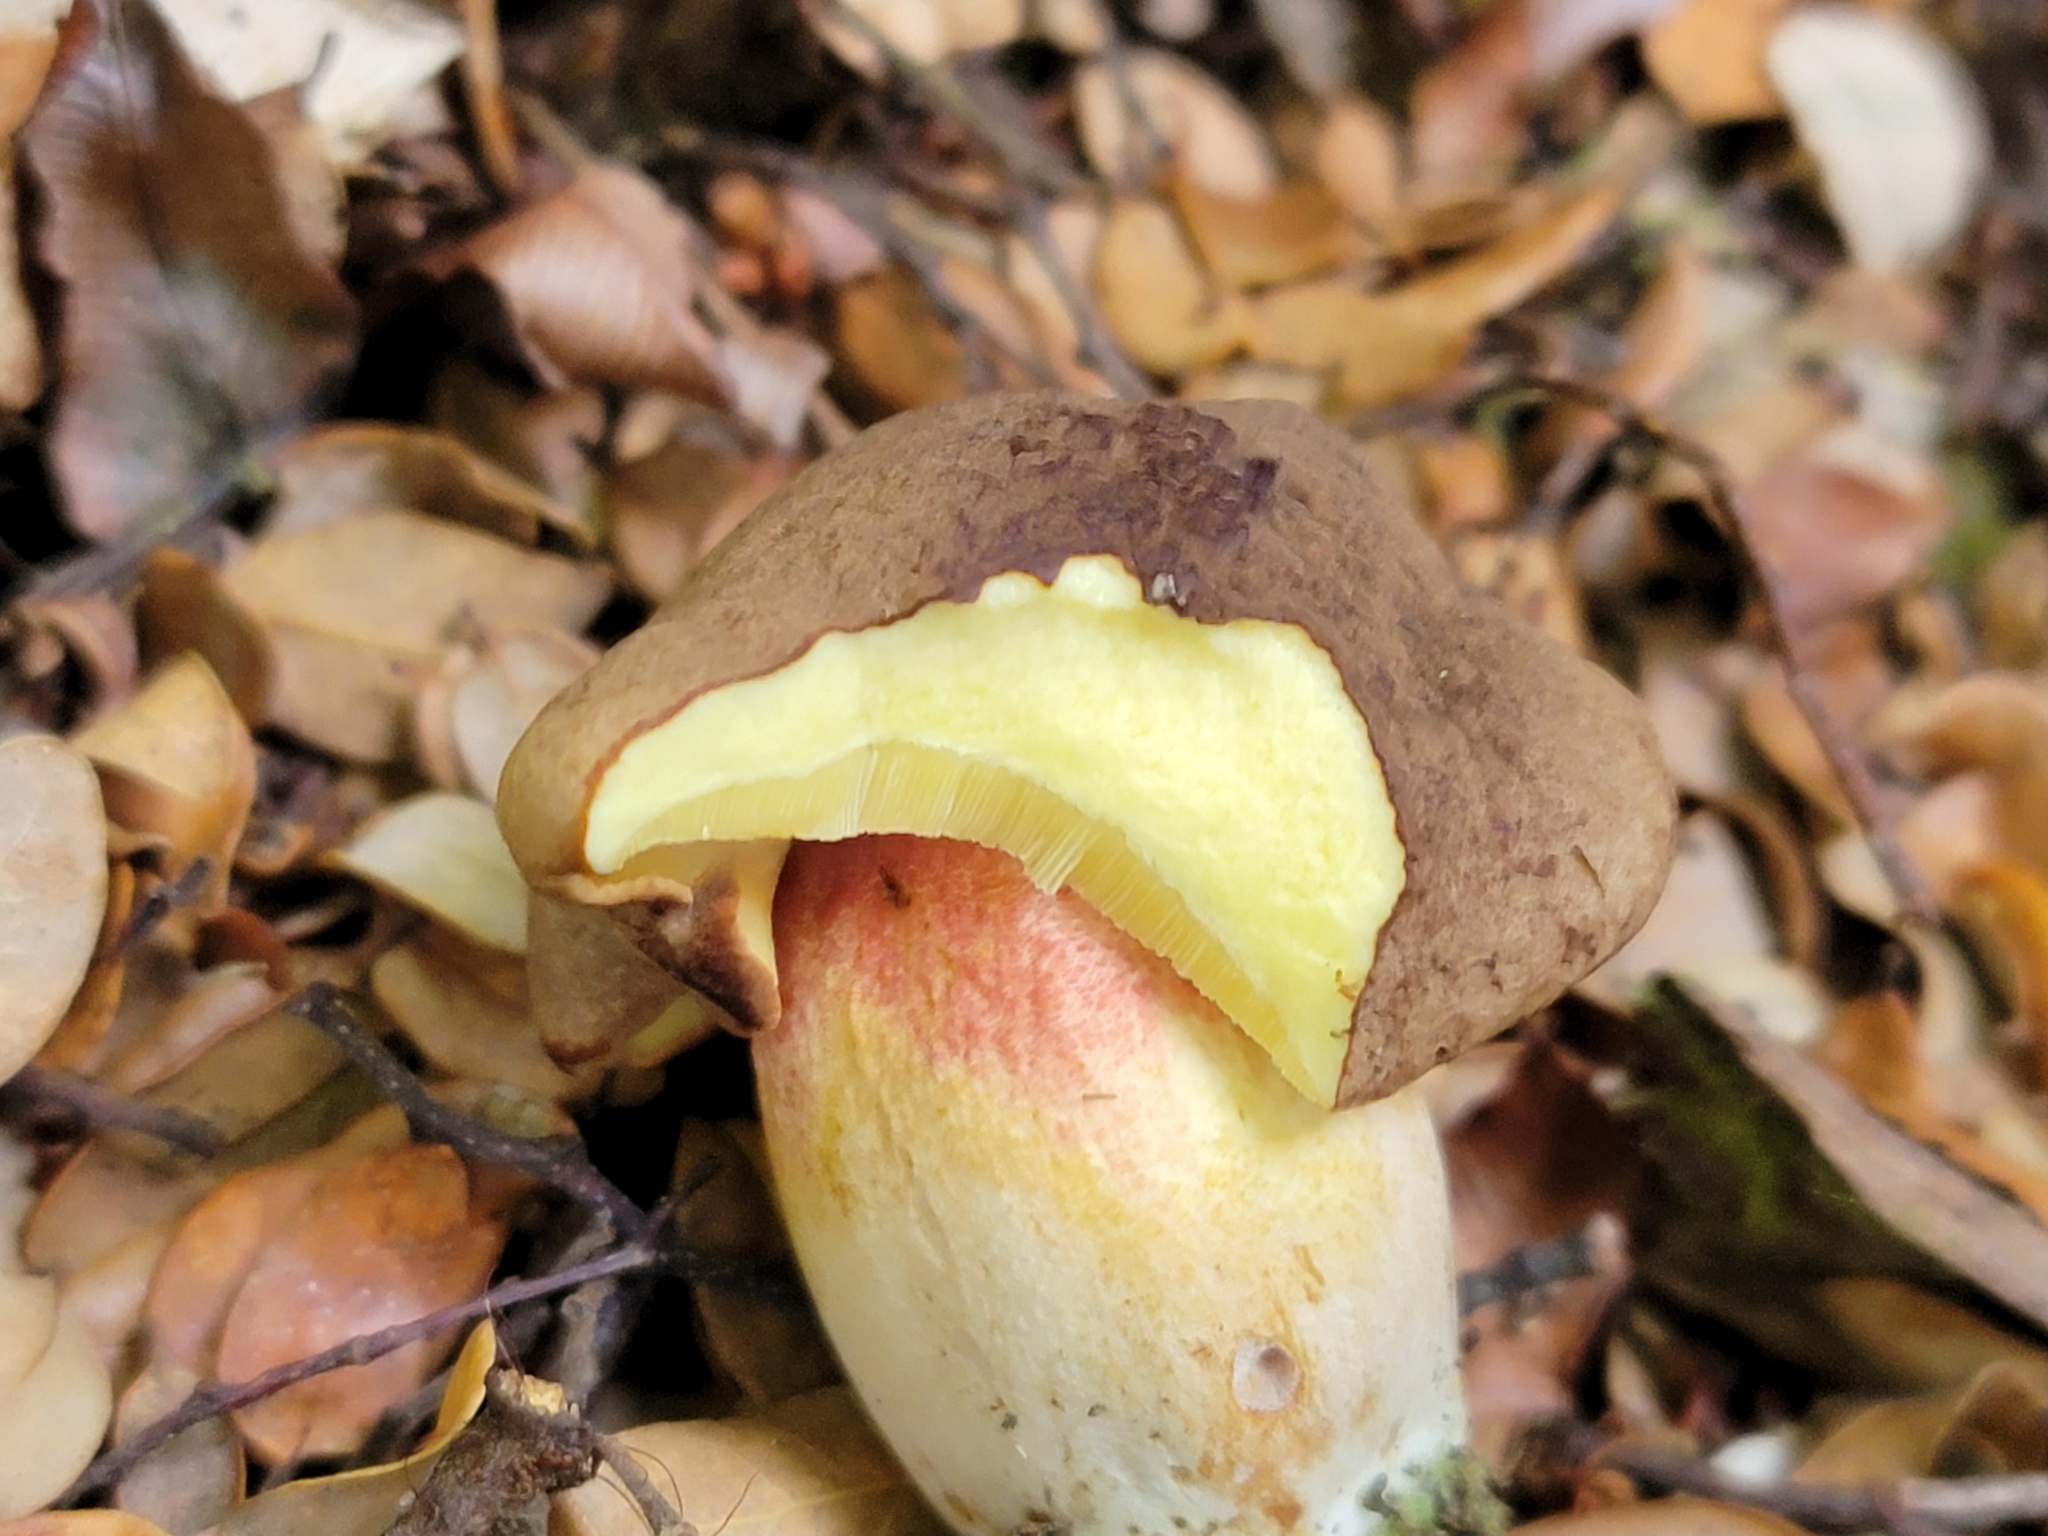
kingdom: Fungi
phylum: Basidiomycota
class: Agaricomycetes
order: Boletales
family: Boletaceae
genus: Xerocomus
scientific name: Xerocomus leptospermi
